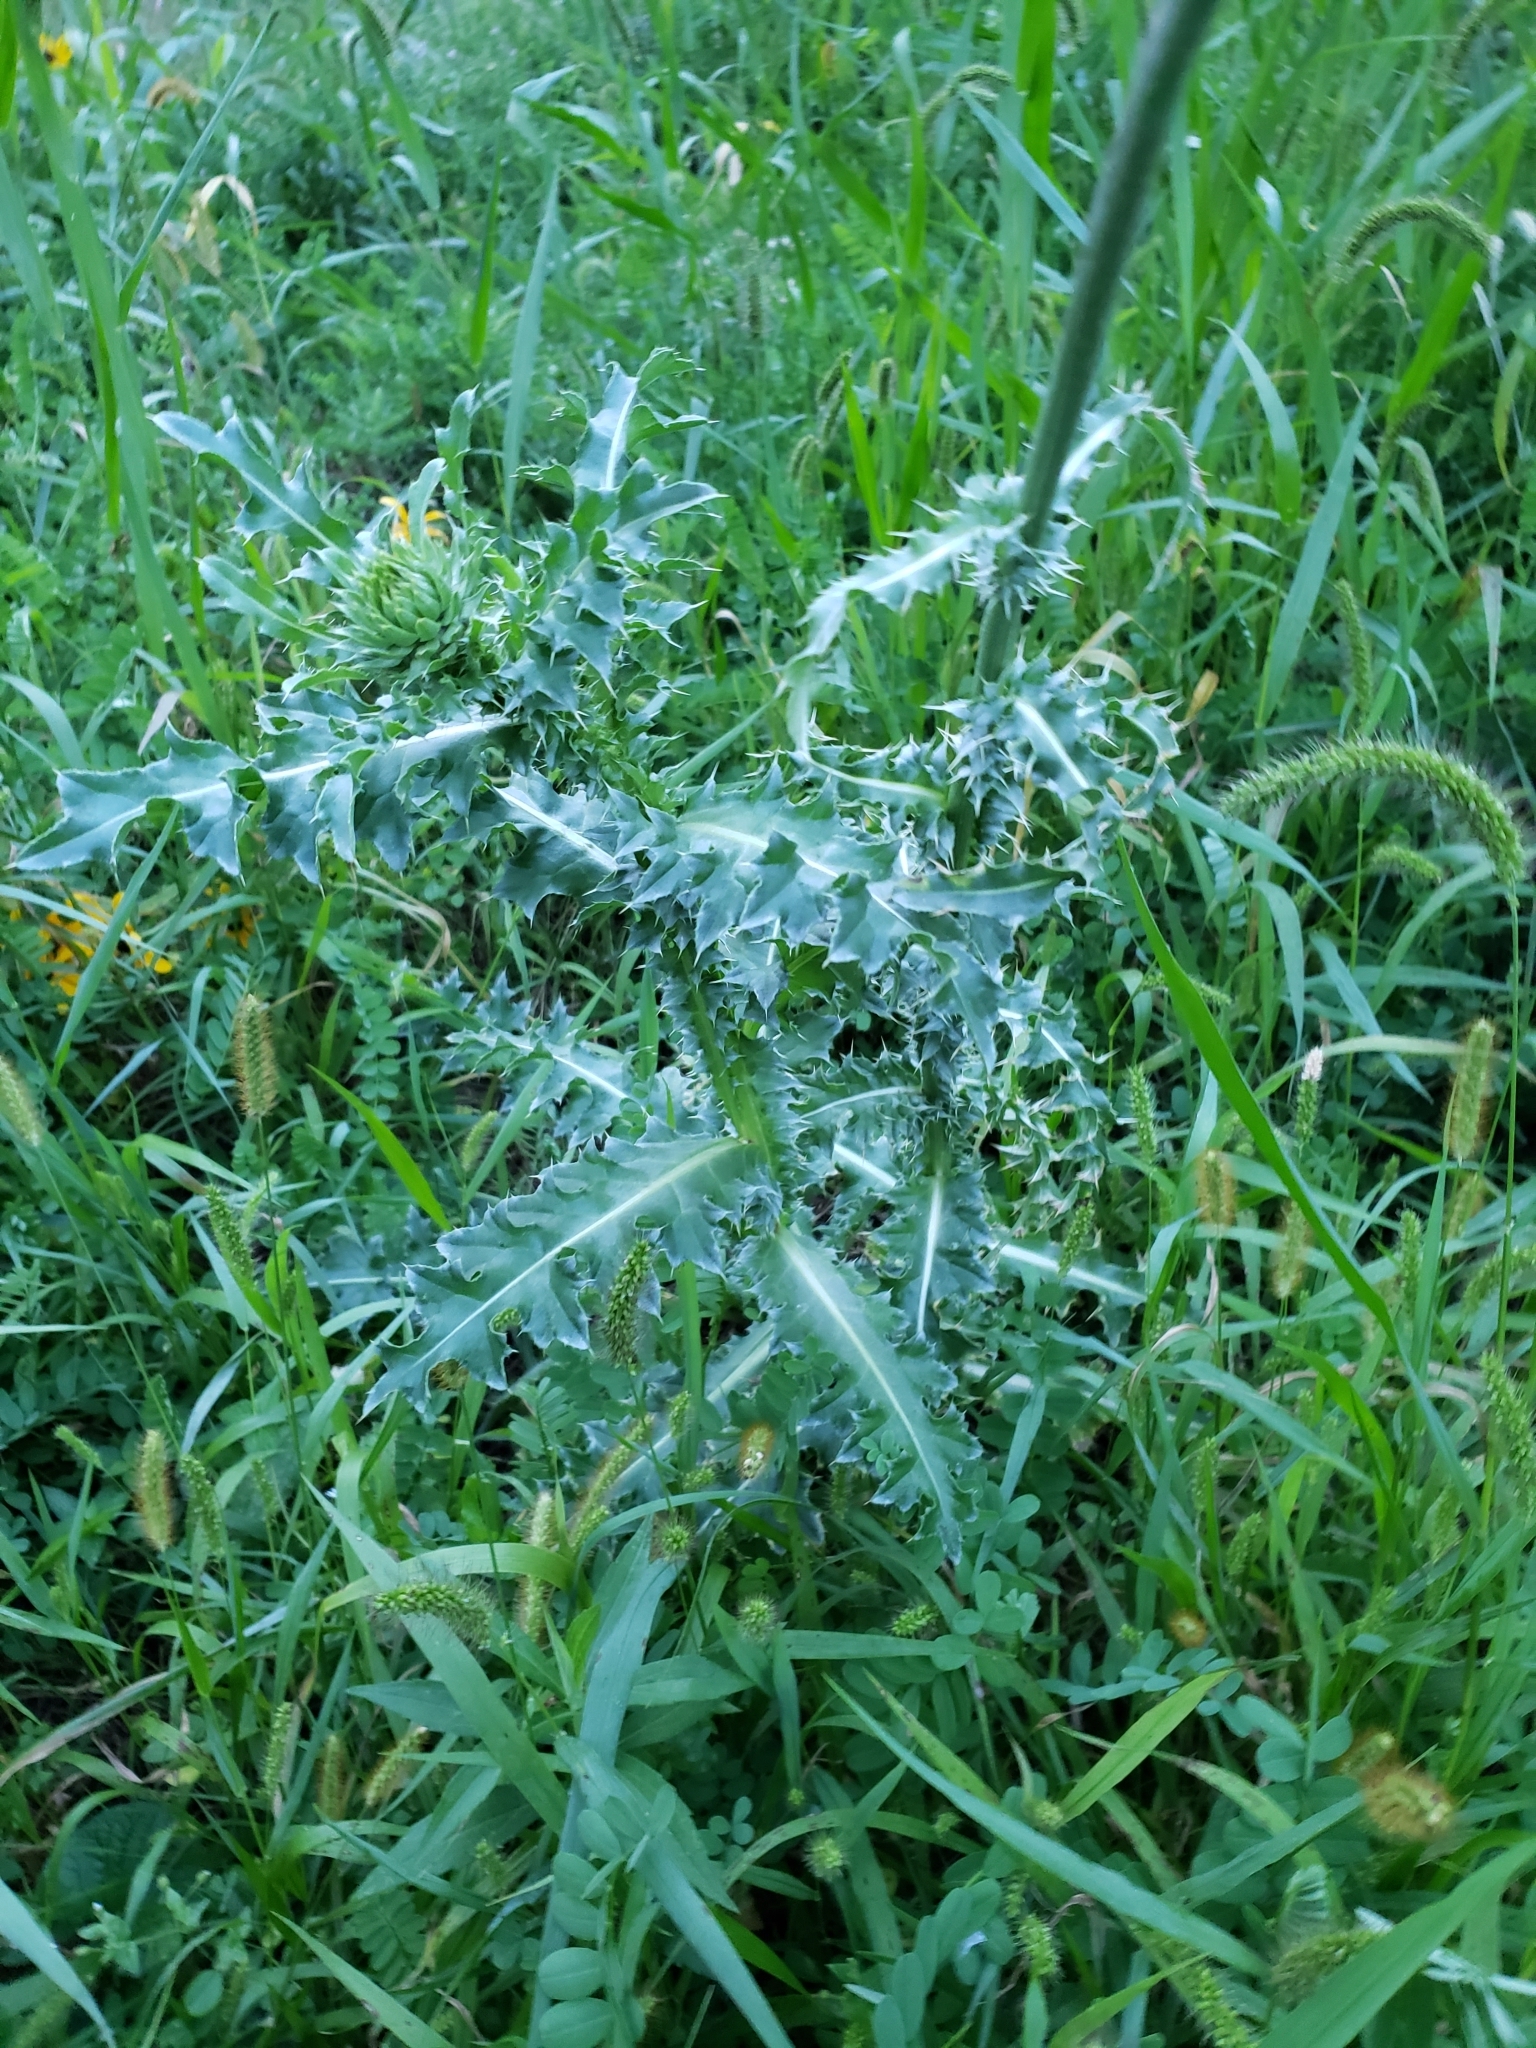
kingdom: Plantae
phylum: Tracheophyta
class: Magnoliopsida
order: Asterales
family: Asteraceae
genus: Carduus
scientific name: Carduus nutans
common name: Musk thistle
